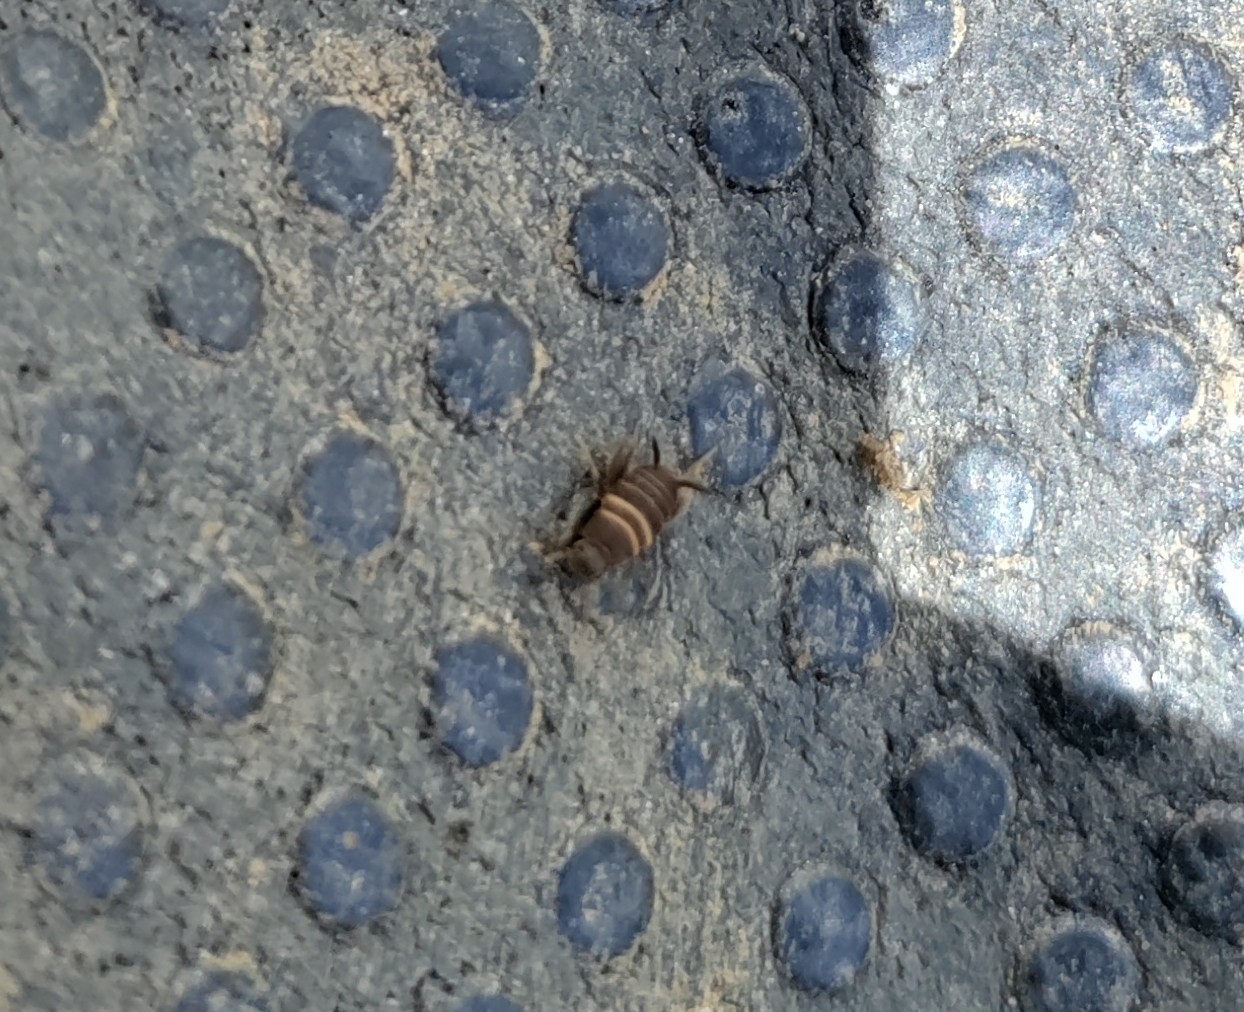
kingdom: Animalia
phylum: Arthropoda
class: Insecta
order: Orthoptera
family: Myrmecophilidae
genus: Myrmecophilus
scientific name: Myrmecophilus acervorum
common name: Ants-nest cricket
